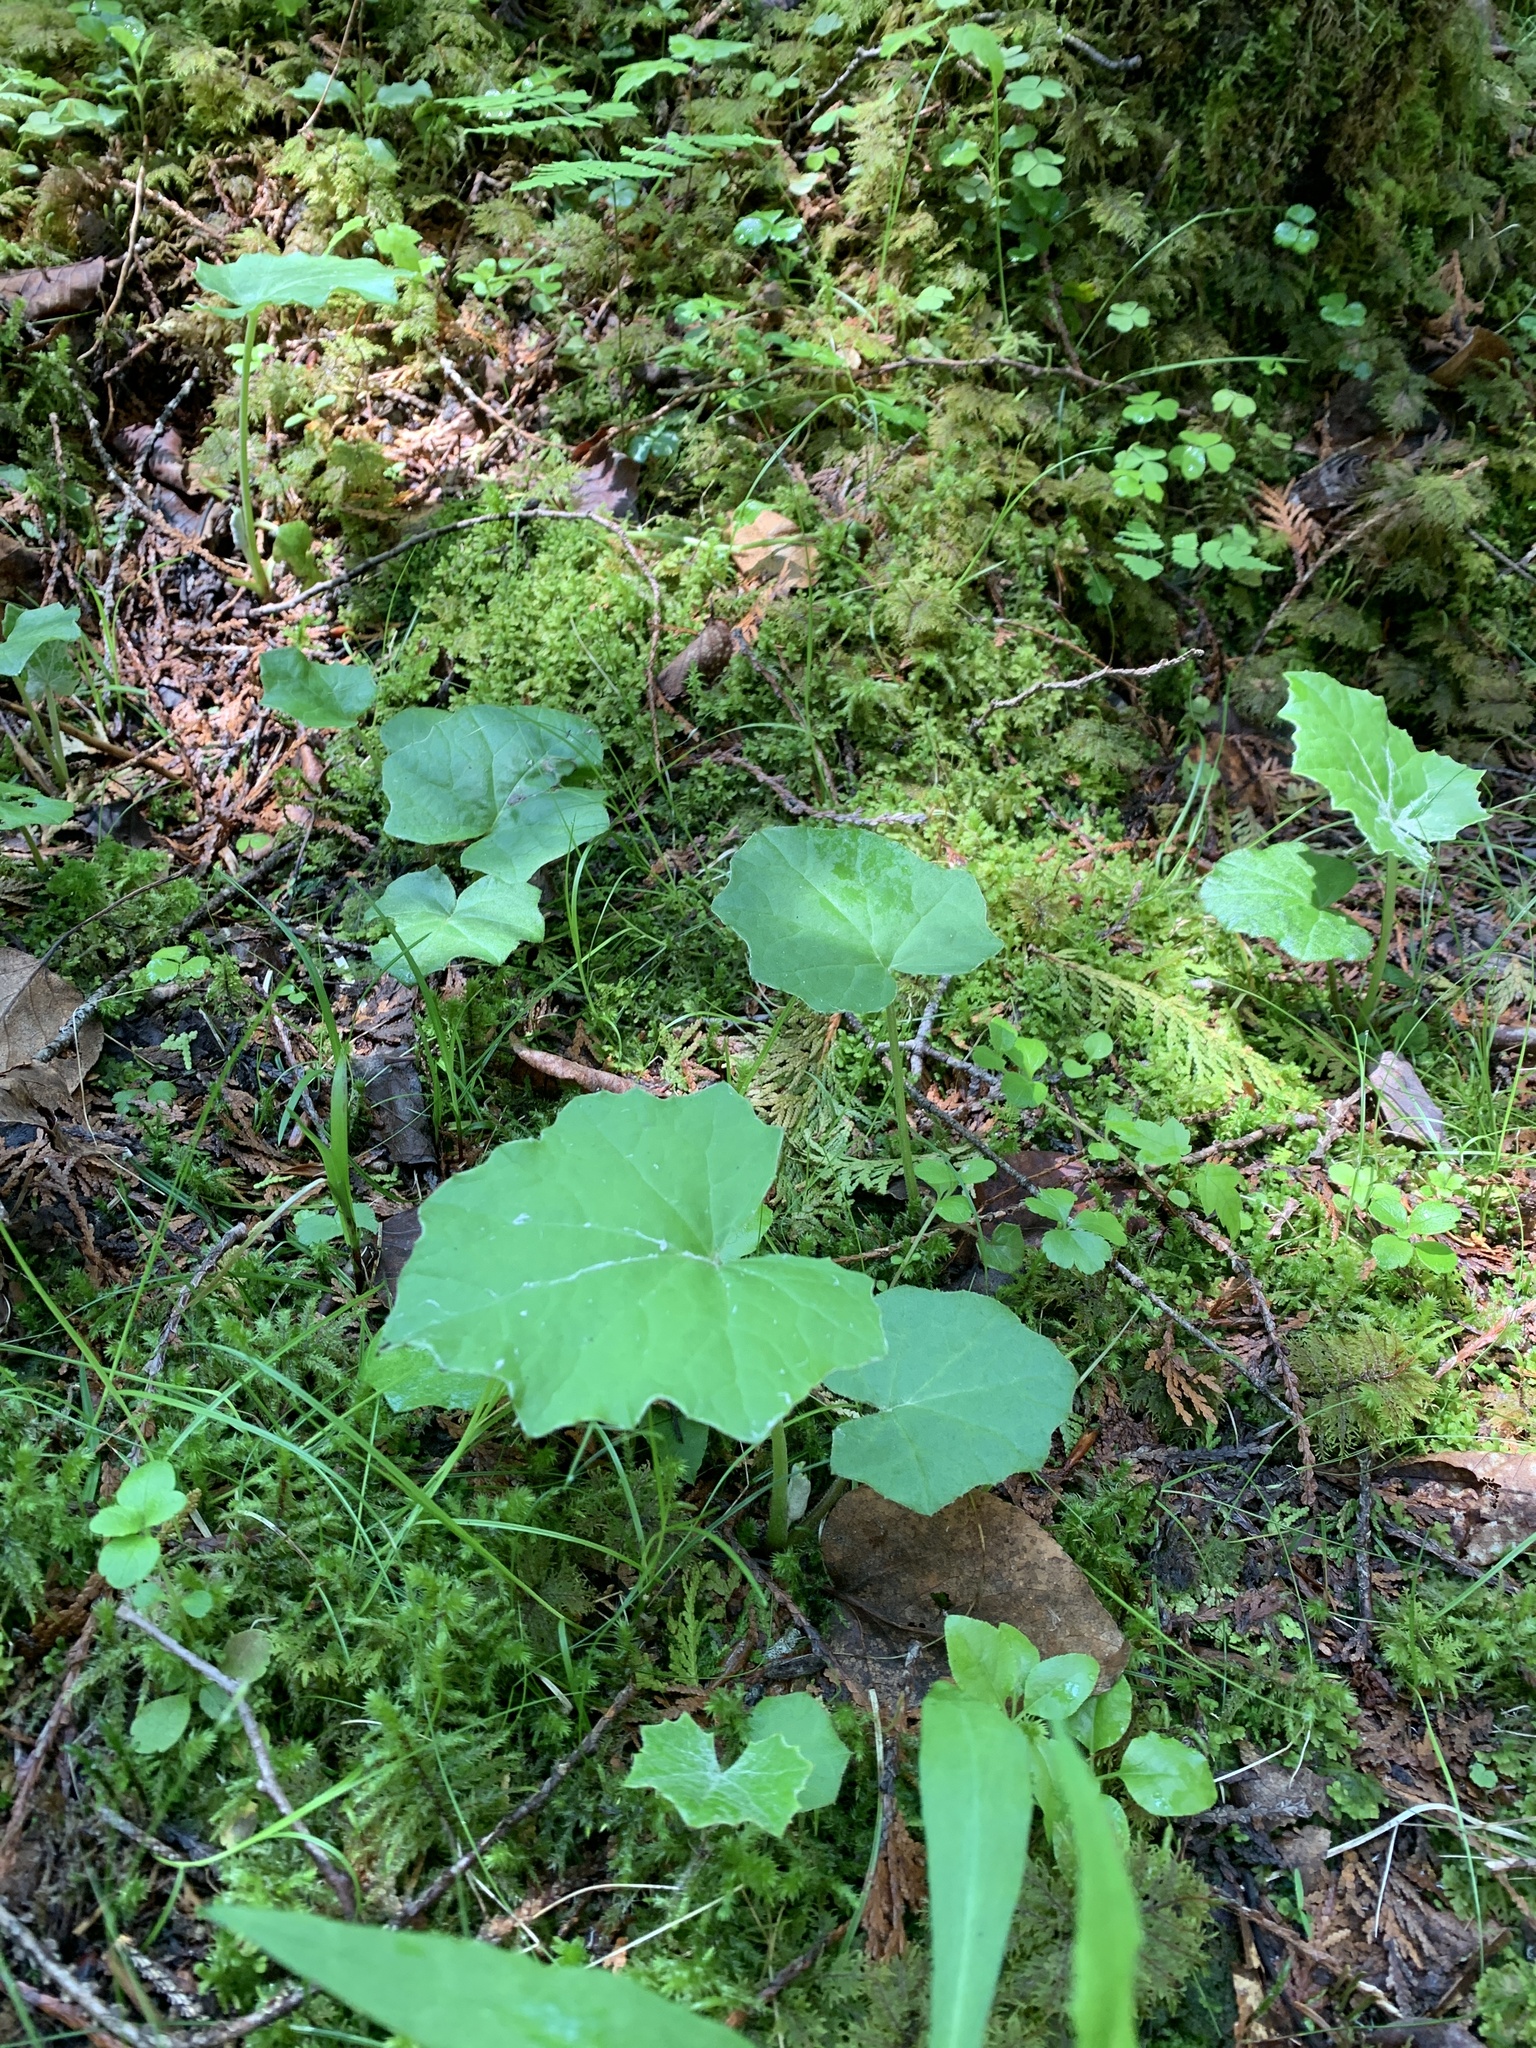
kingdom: Plantae
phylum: Tracheophyta
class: Magnoliopsida
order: Asterales
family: Asteraceae
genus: Tussilago
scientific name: Tussilago farfara
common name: Coltsfoot
